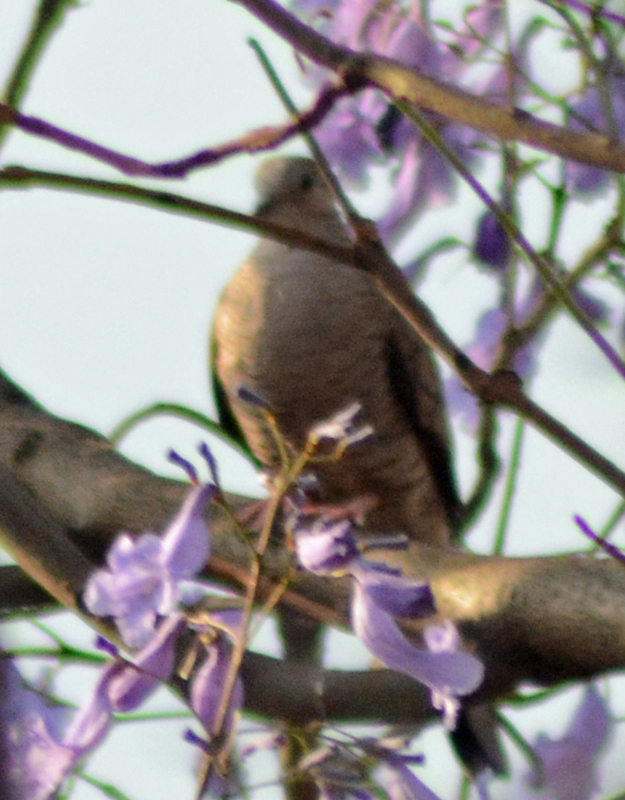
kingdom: Animalia
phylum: Chordata
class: Aves
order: Columbiformes
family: Columbidae
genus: Columbina
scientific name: Columbina inca
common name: Inca dove
